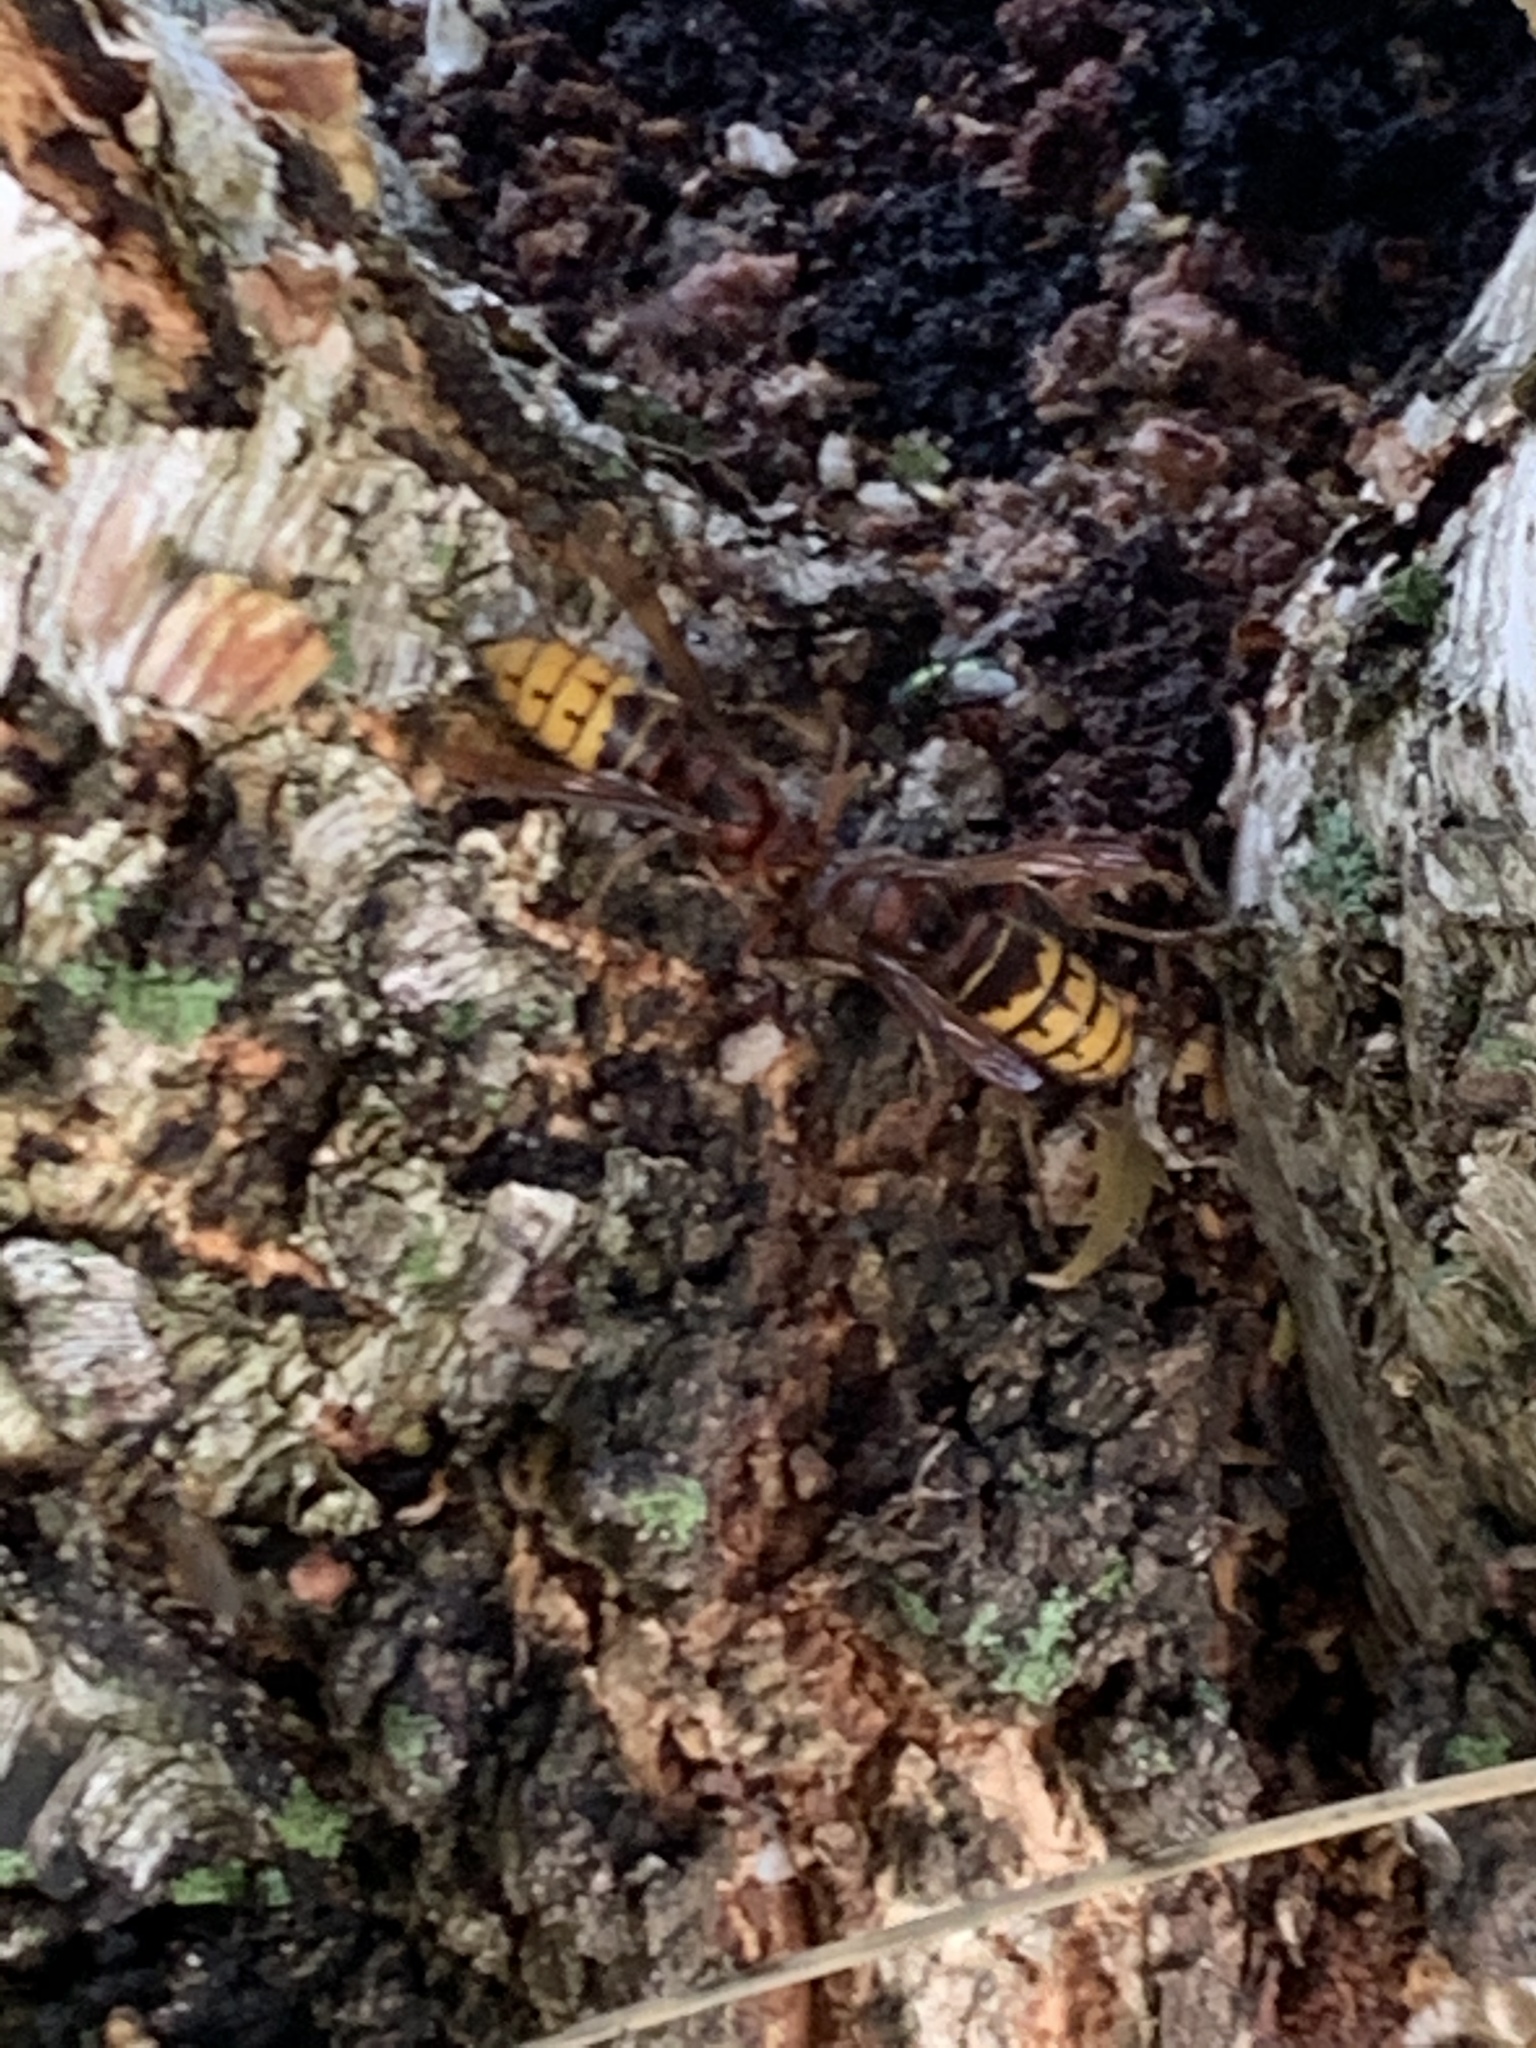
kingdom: Animalia
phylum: Arthropoda
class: Insecta
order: Hymenoptera
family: Vespidae
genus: Vespa
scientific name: Vespa crabro
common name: Hornet
